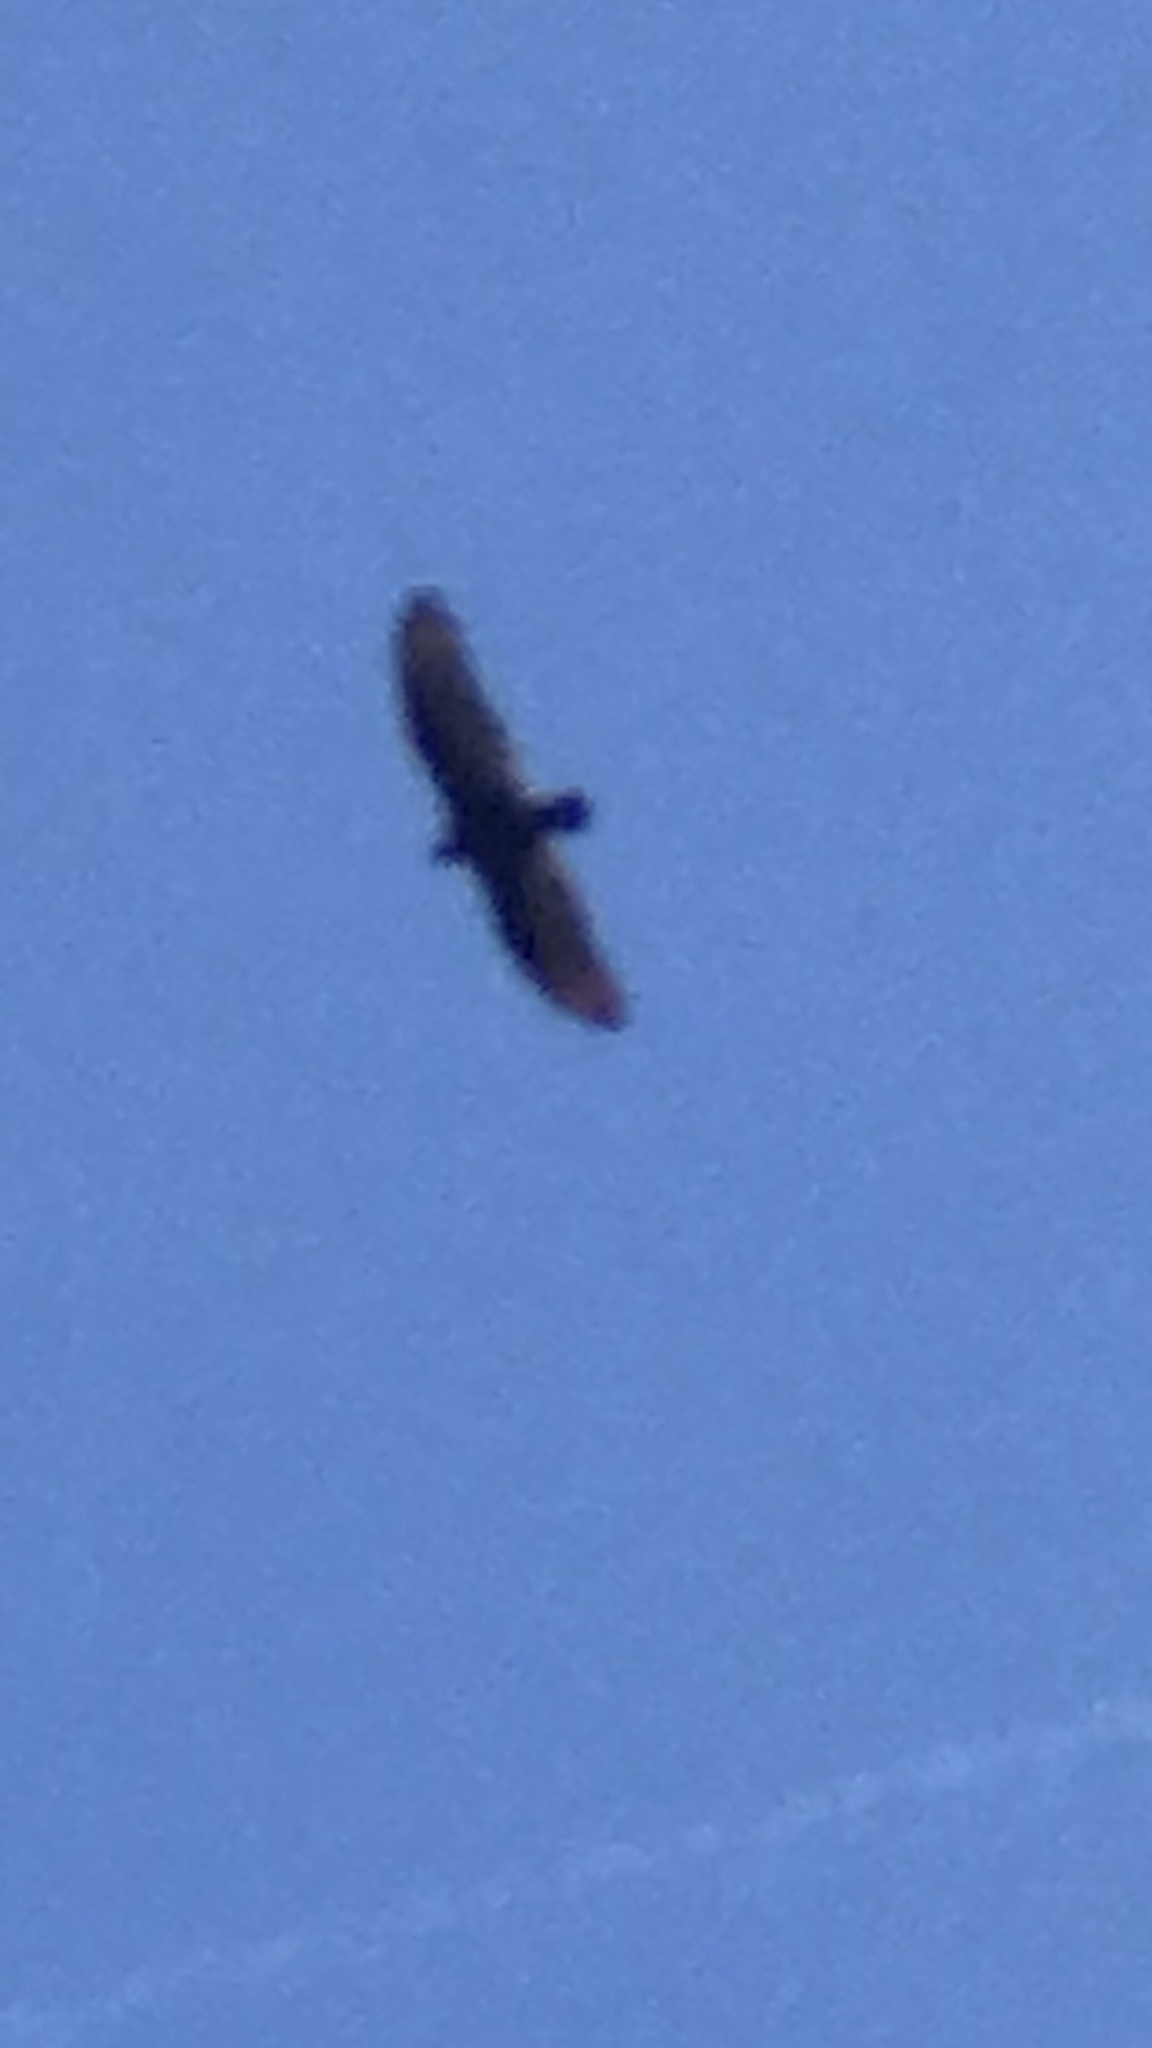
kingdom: Animalia
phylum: Chordata
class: Aves
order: Accipitriformes
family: Cathartidae
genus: Cathartes
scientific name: Cathartes aura
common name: Turkey vulture
